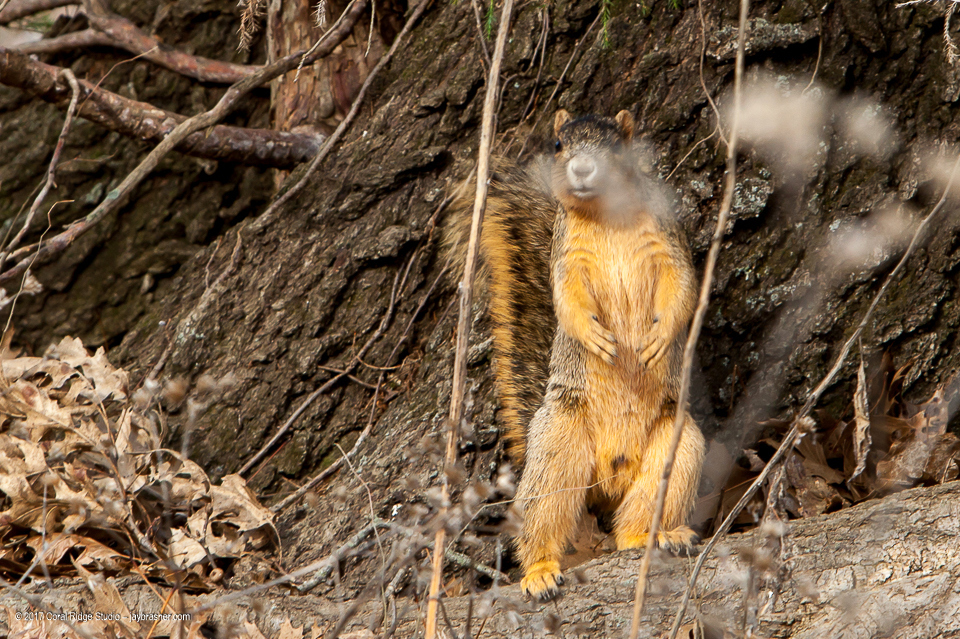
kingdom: Animalia
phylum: Chordata
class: Mammalia
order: Rodentia
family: Sciuridae
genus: Sciurus
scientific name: Sciurus niger
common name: Fox squirrel
